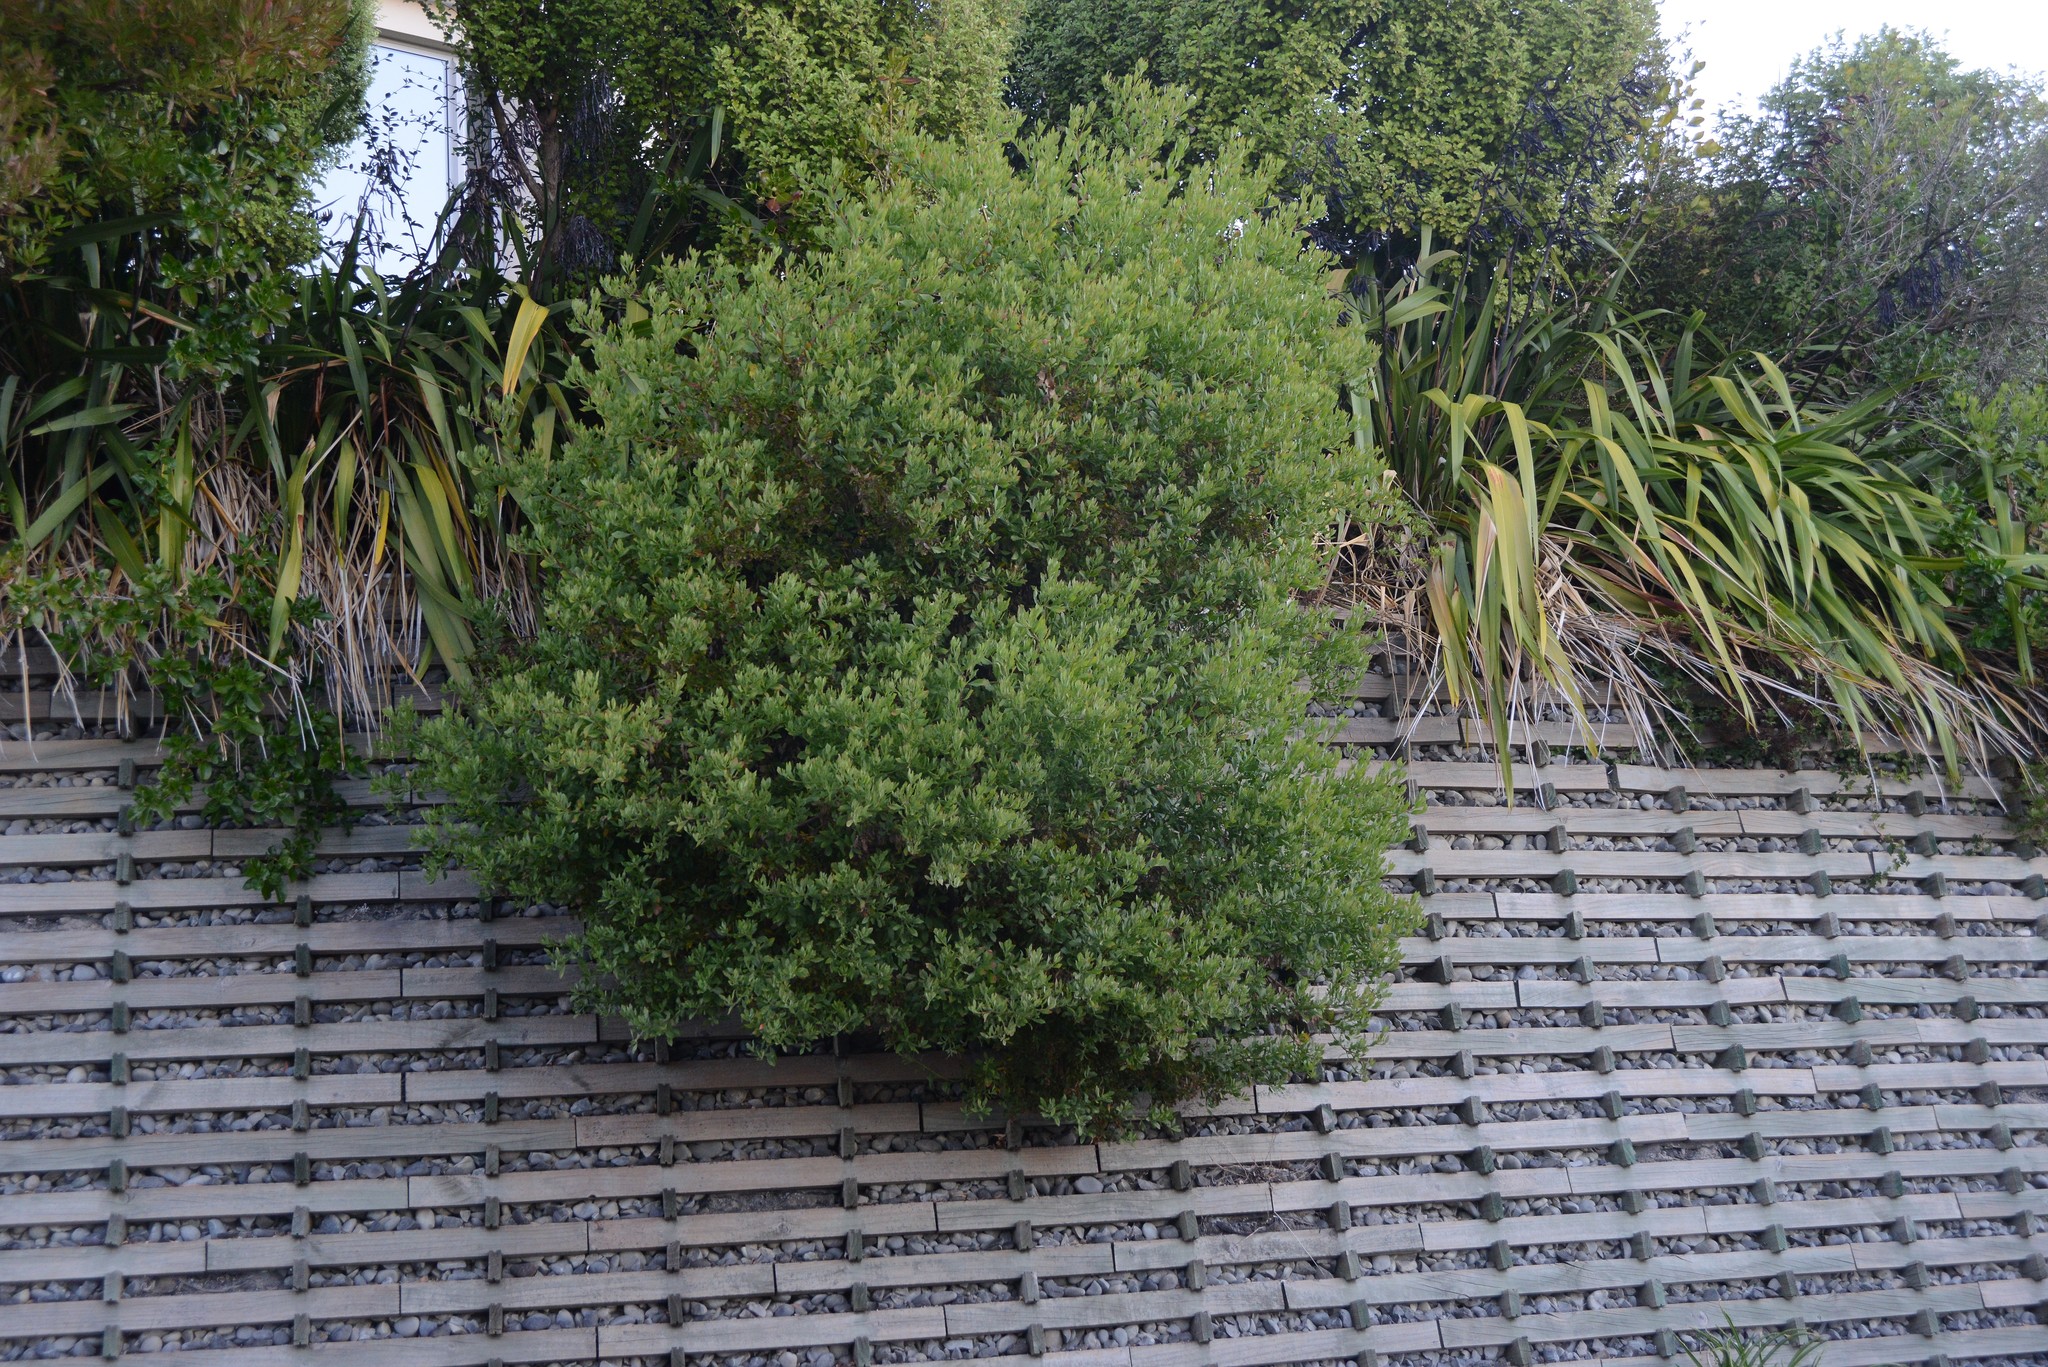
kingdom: Plantae
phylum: Tracheophyta
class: Magnoliopsida
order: Asterales
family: Asteraceae
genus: Osteospermum
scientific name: Osteospermum moniliferum
